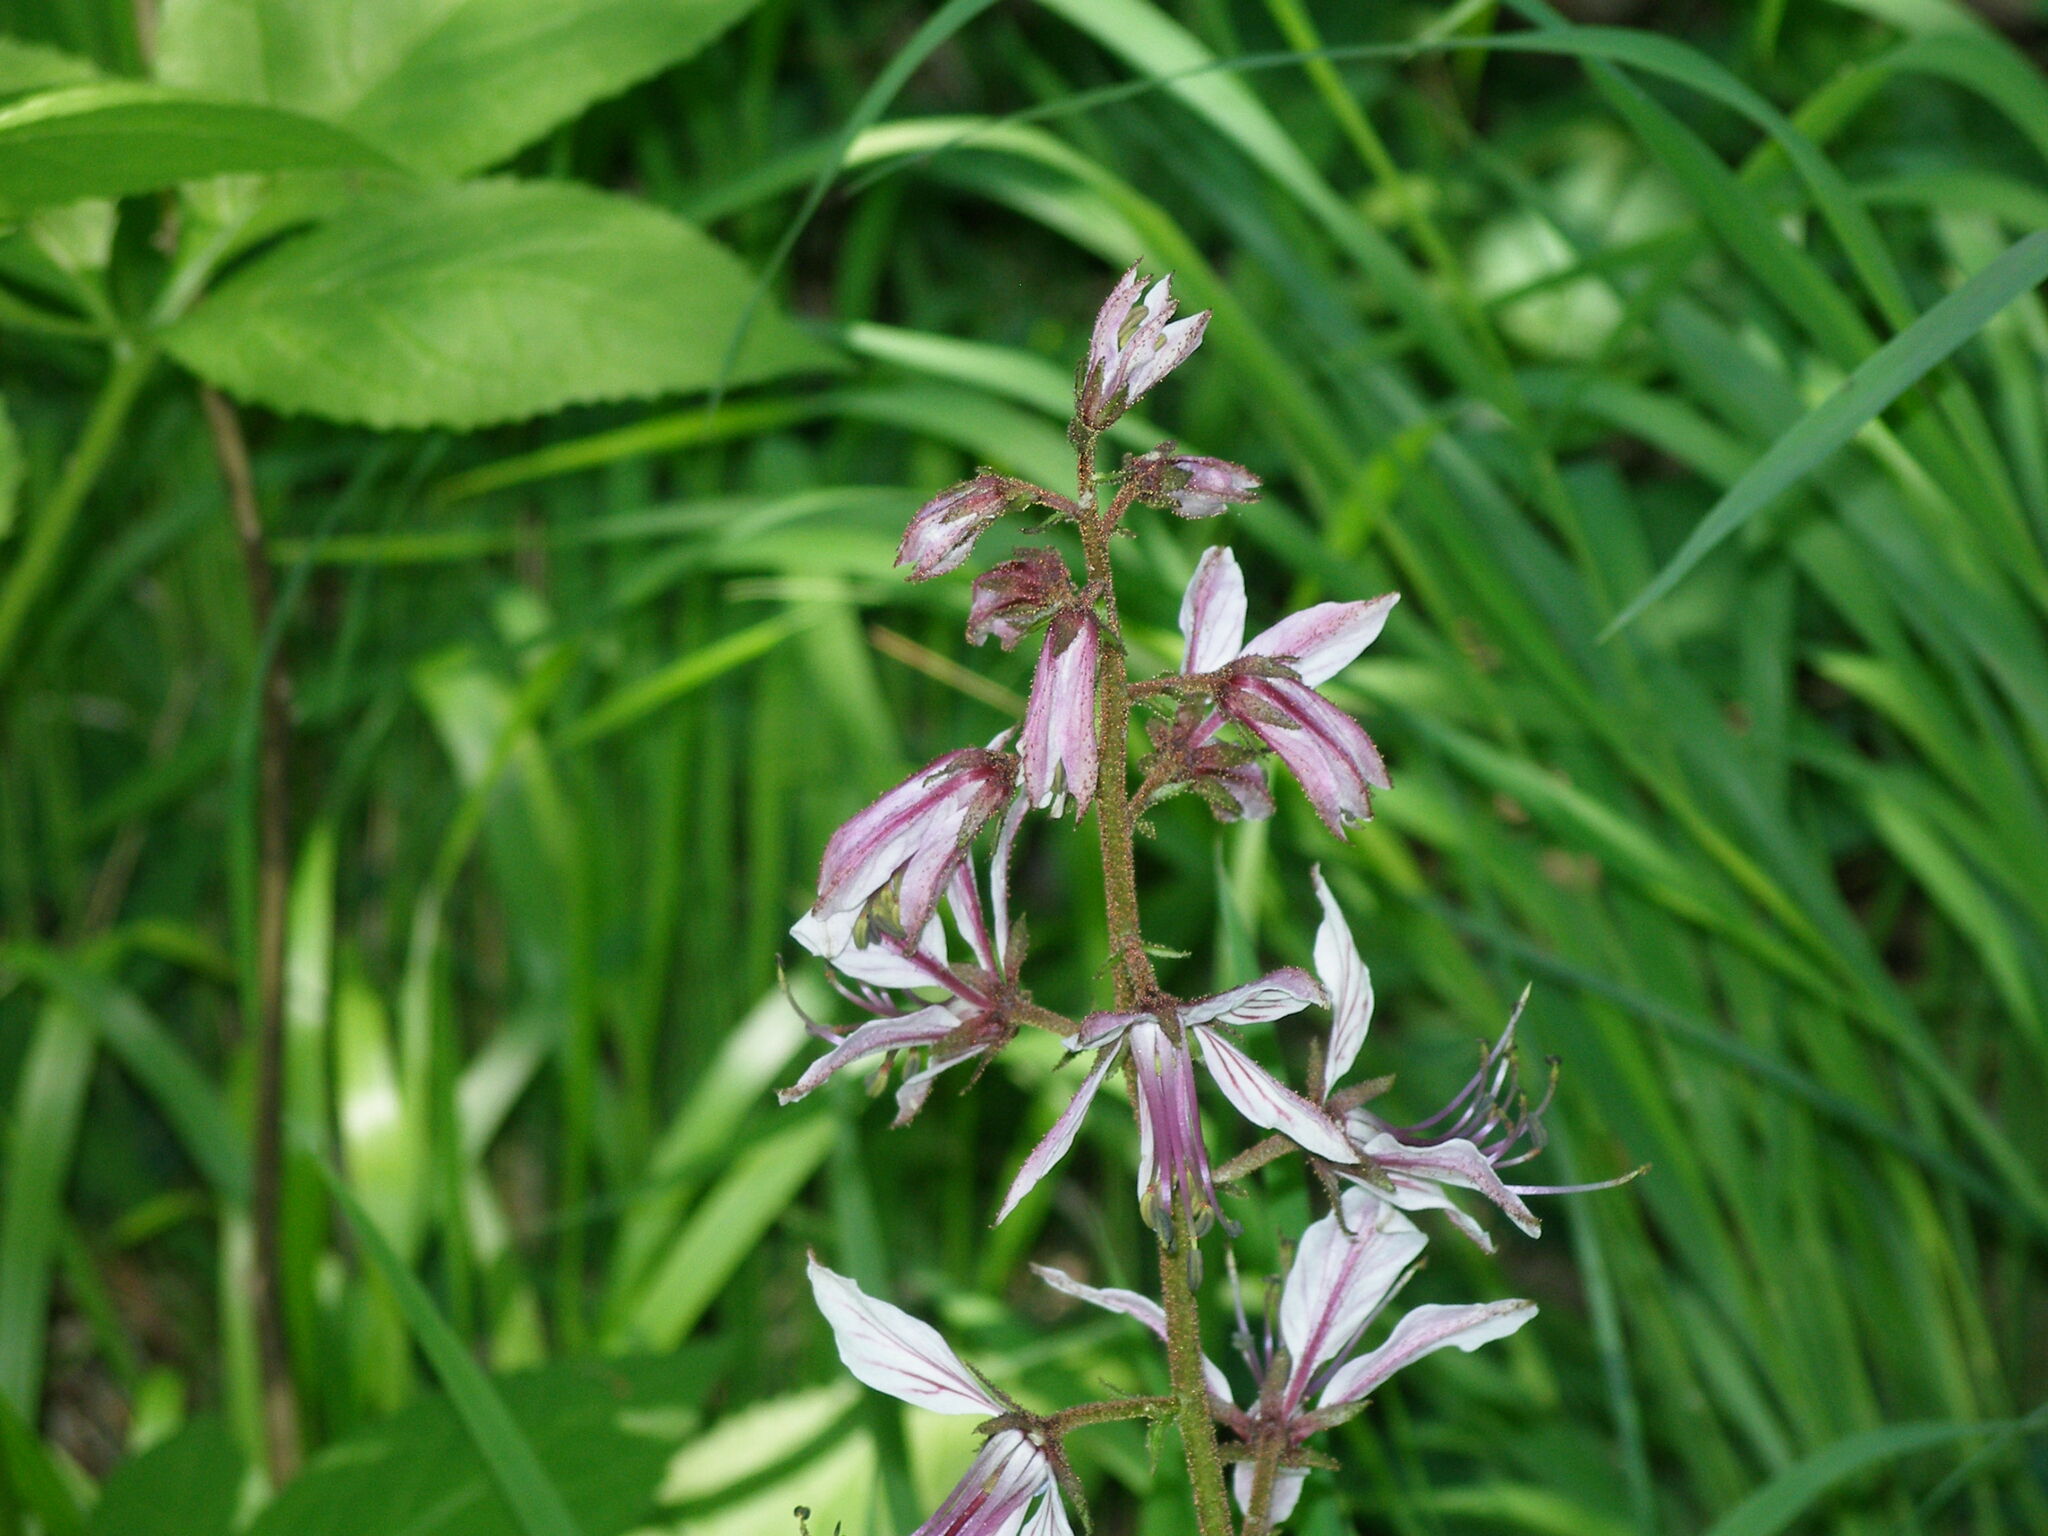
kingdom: Plantae
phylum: Tracheophyta
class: Magnoliopsida
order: Sapindales
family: Rutaceae
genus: Dictamnus
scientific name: Dictamnus albus
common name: Gasplant
